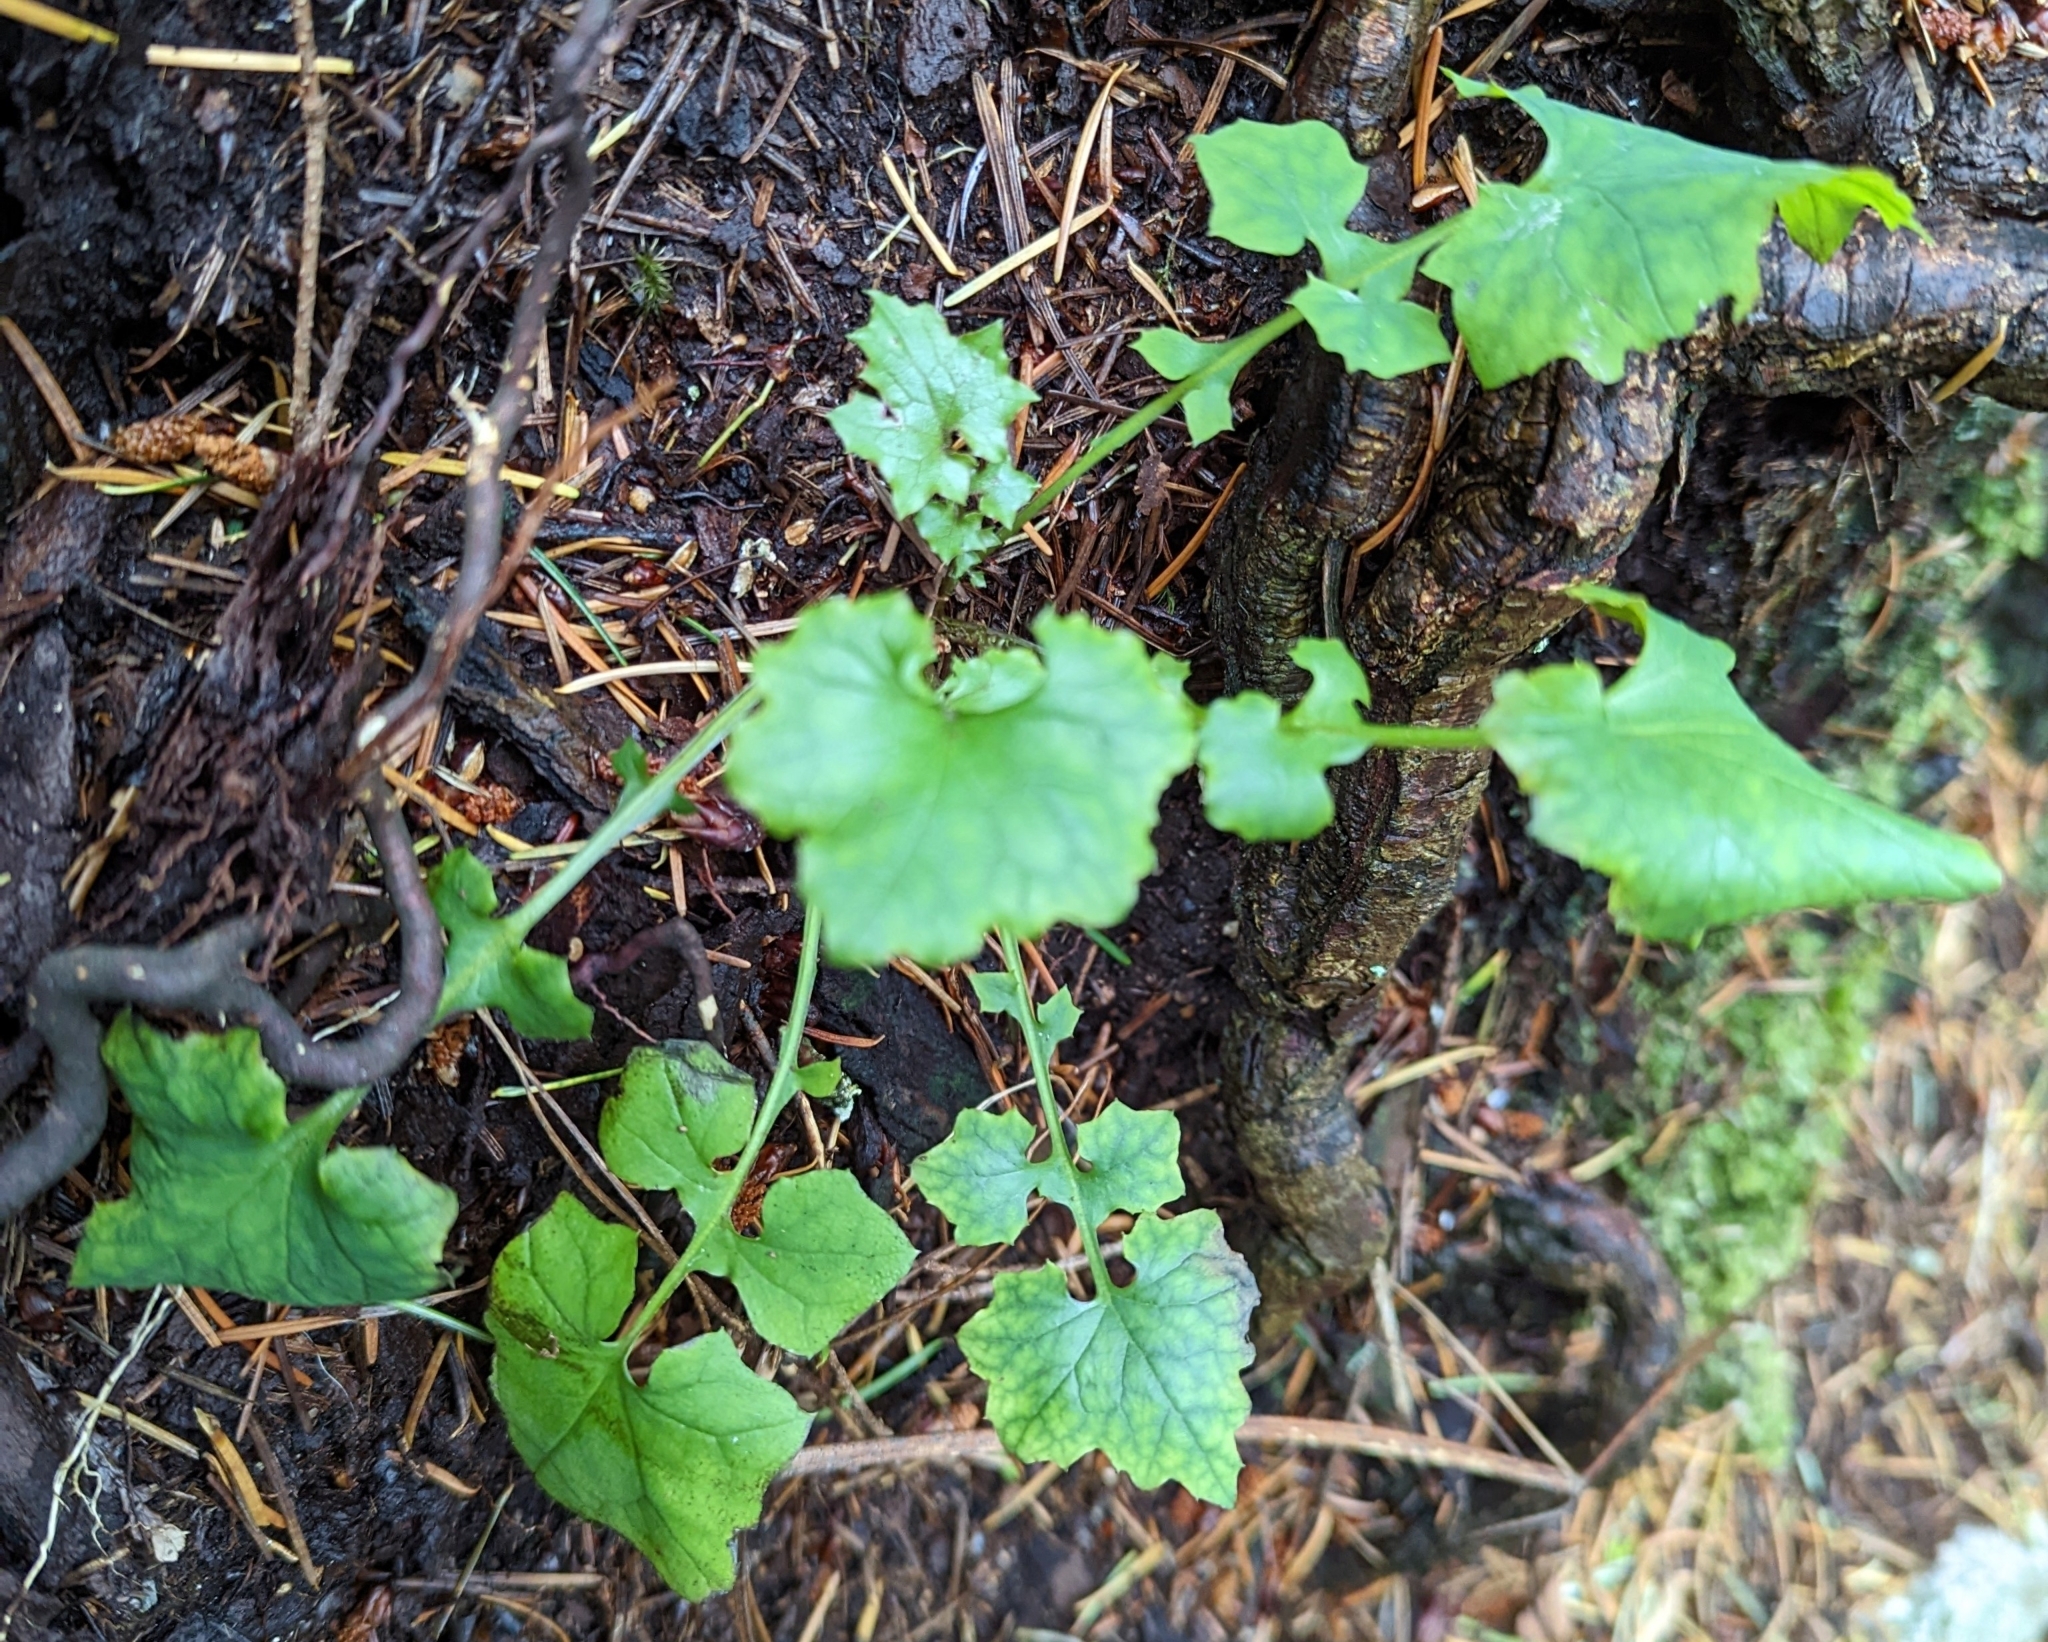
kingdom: Plantae
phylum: Tracheophyta
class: Magnoliopsida
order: Asterales
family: Asteraceae
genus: Mycelis
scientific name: Mycelis muralis
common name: Wall lettuce
